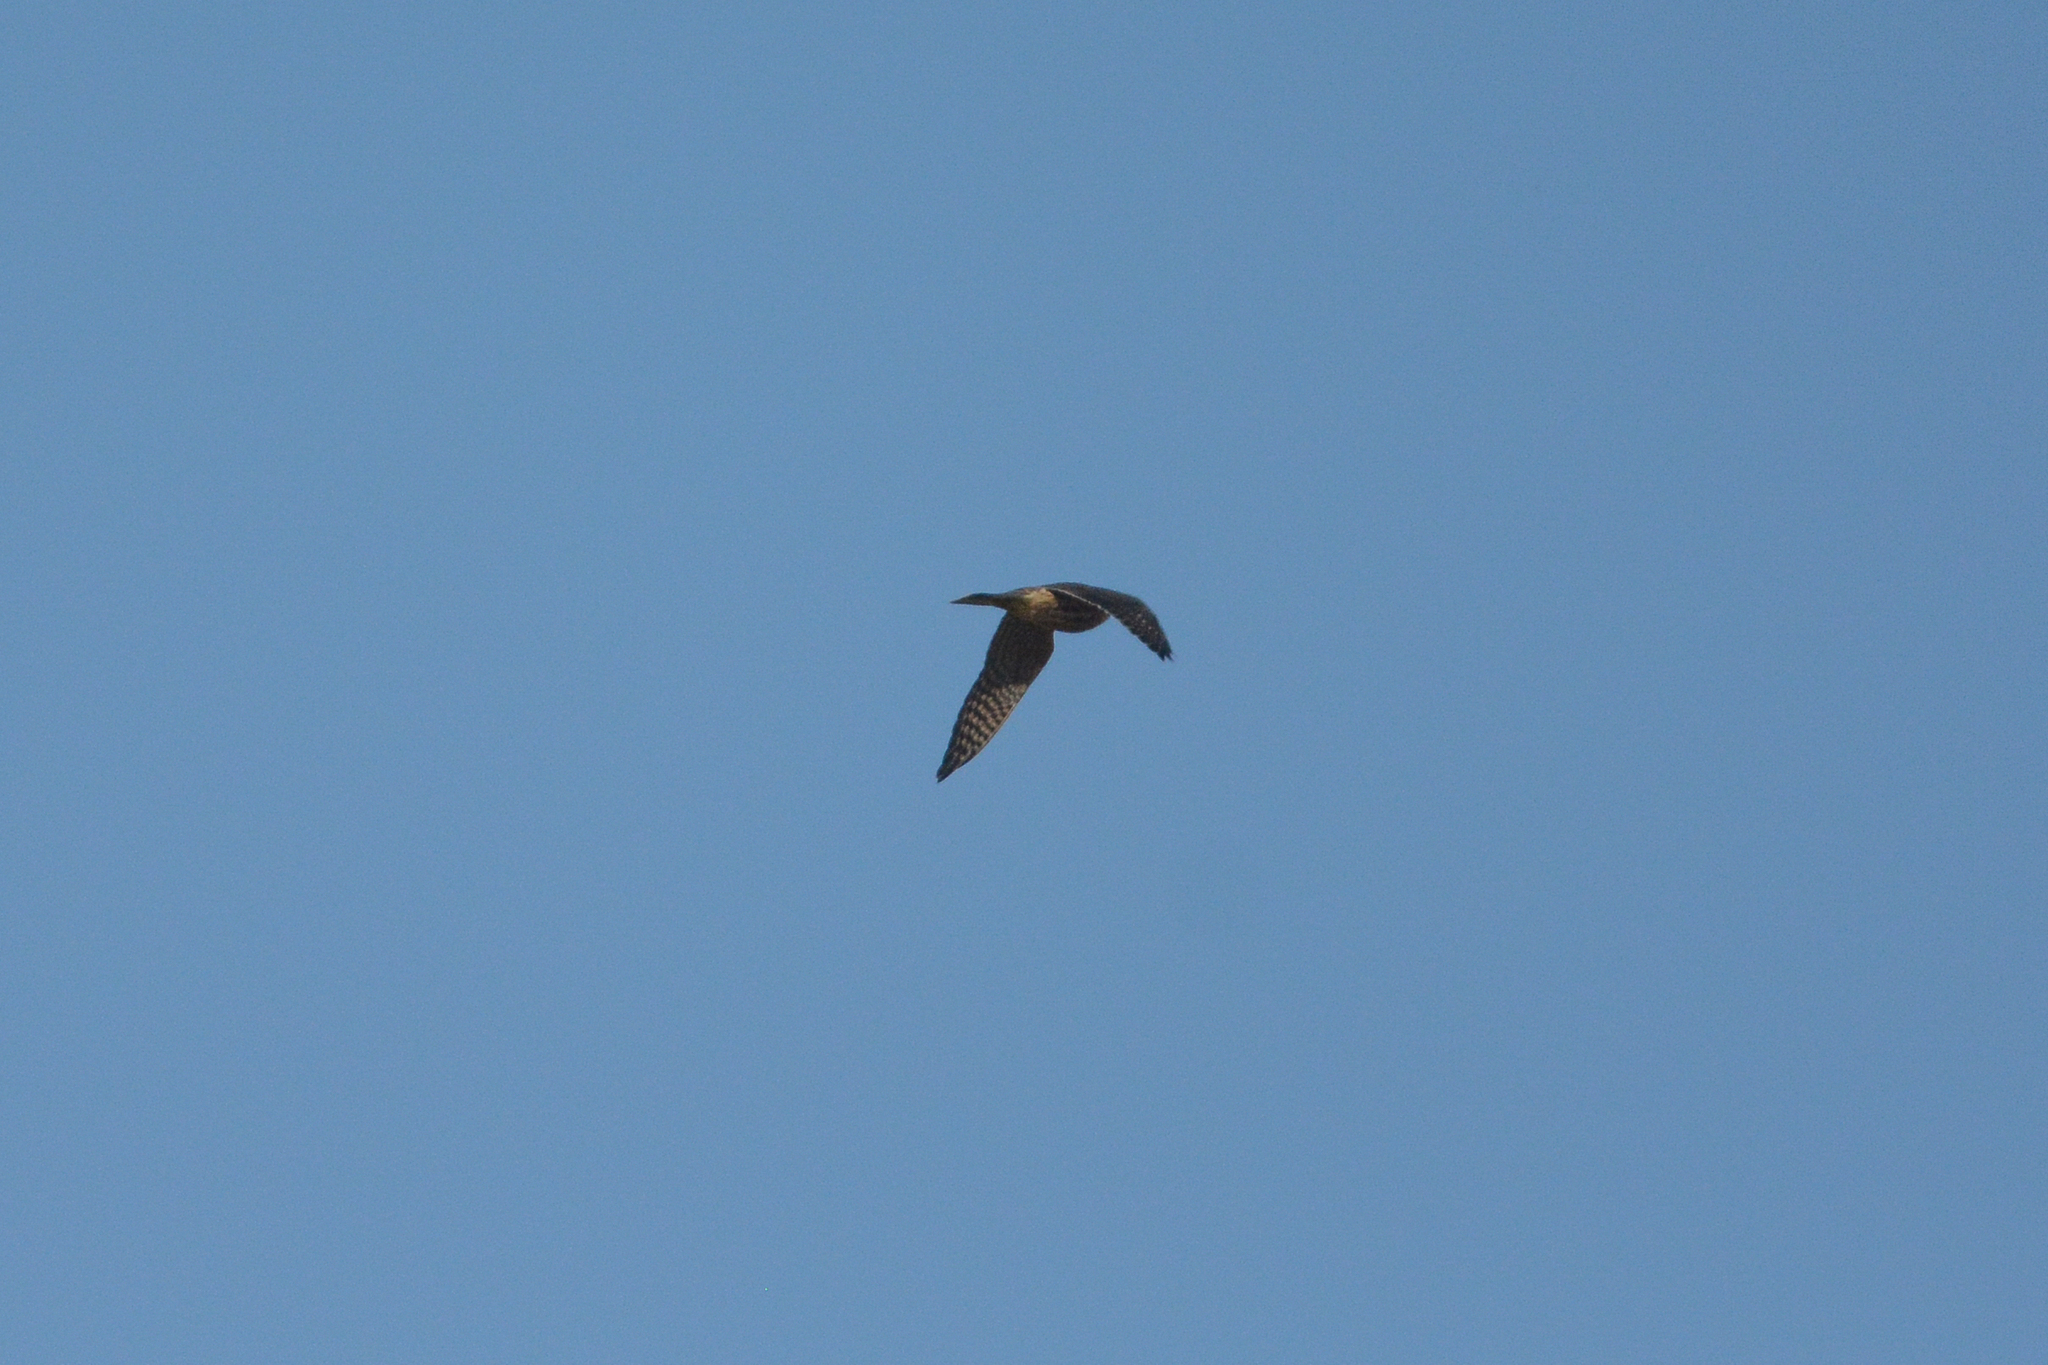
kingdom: Animalia
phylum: Chordata
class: Aves
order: Falconiformes
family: Falconidae
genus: Falco
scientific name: Falco columbarius
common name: Merlin
